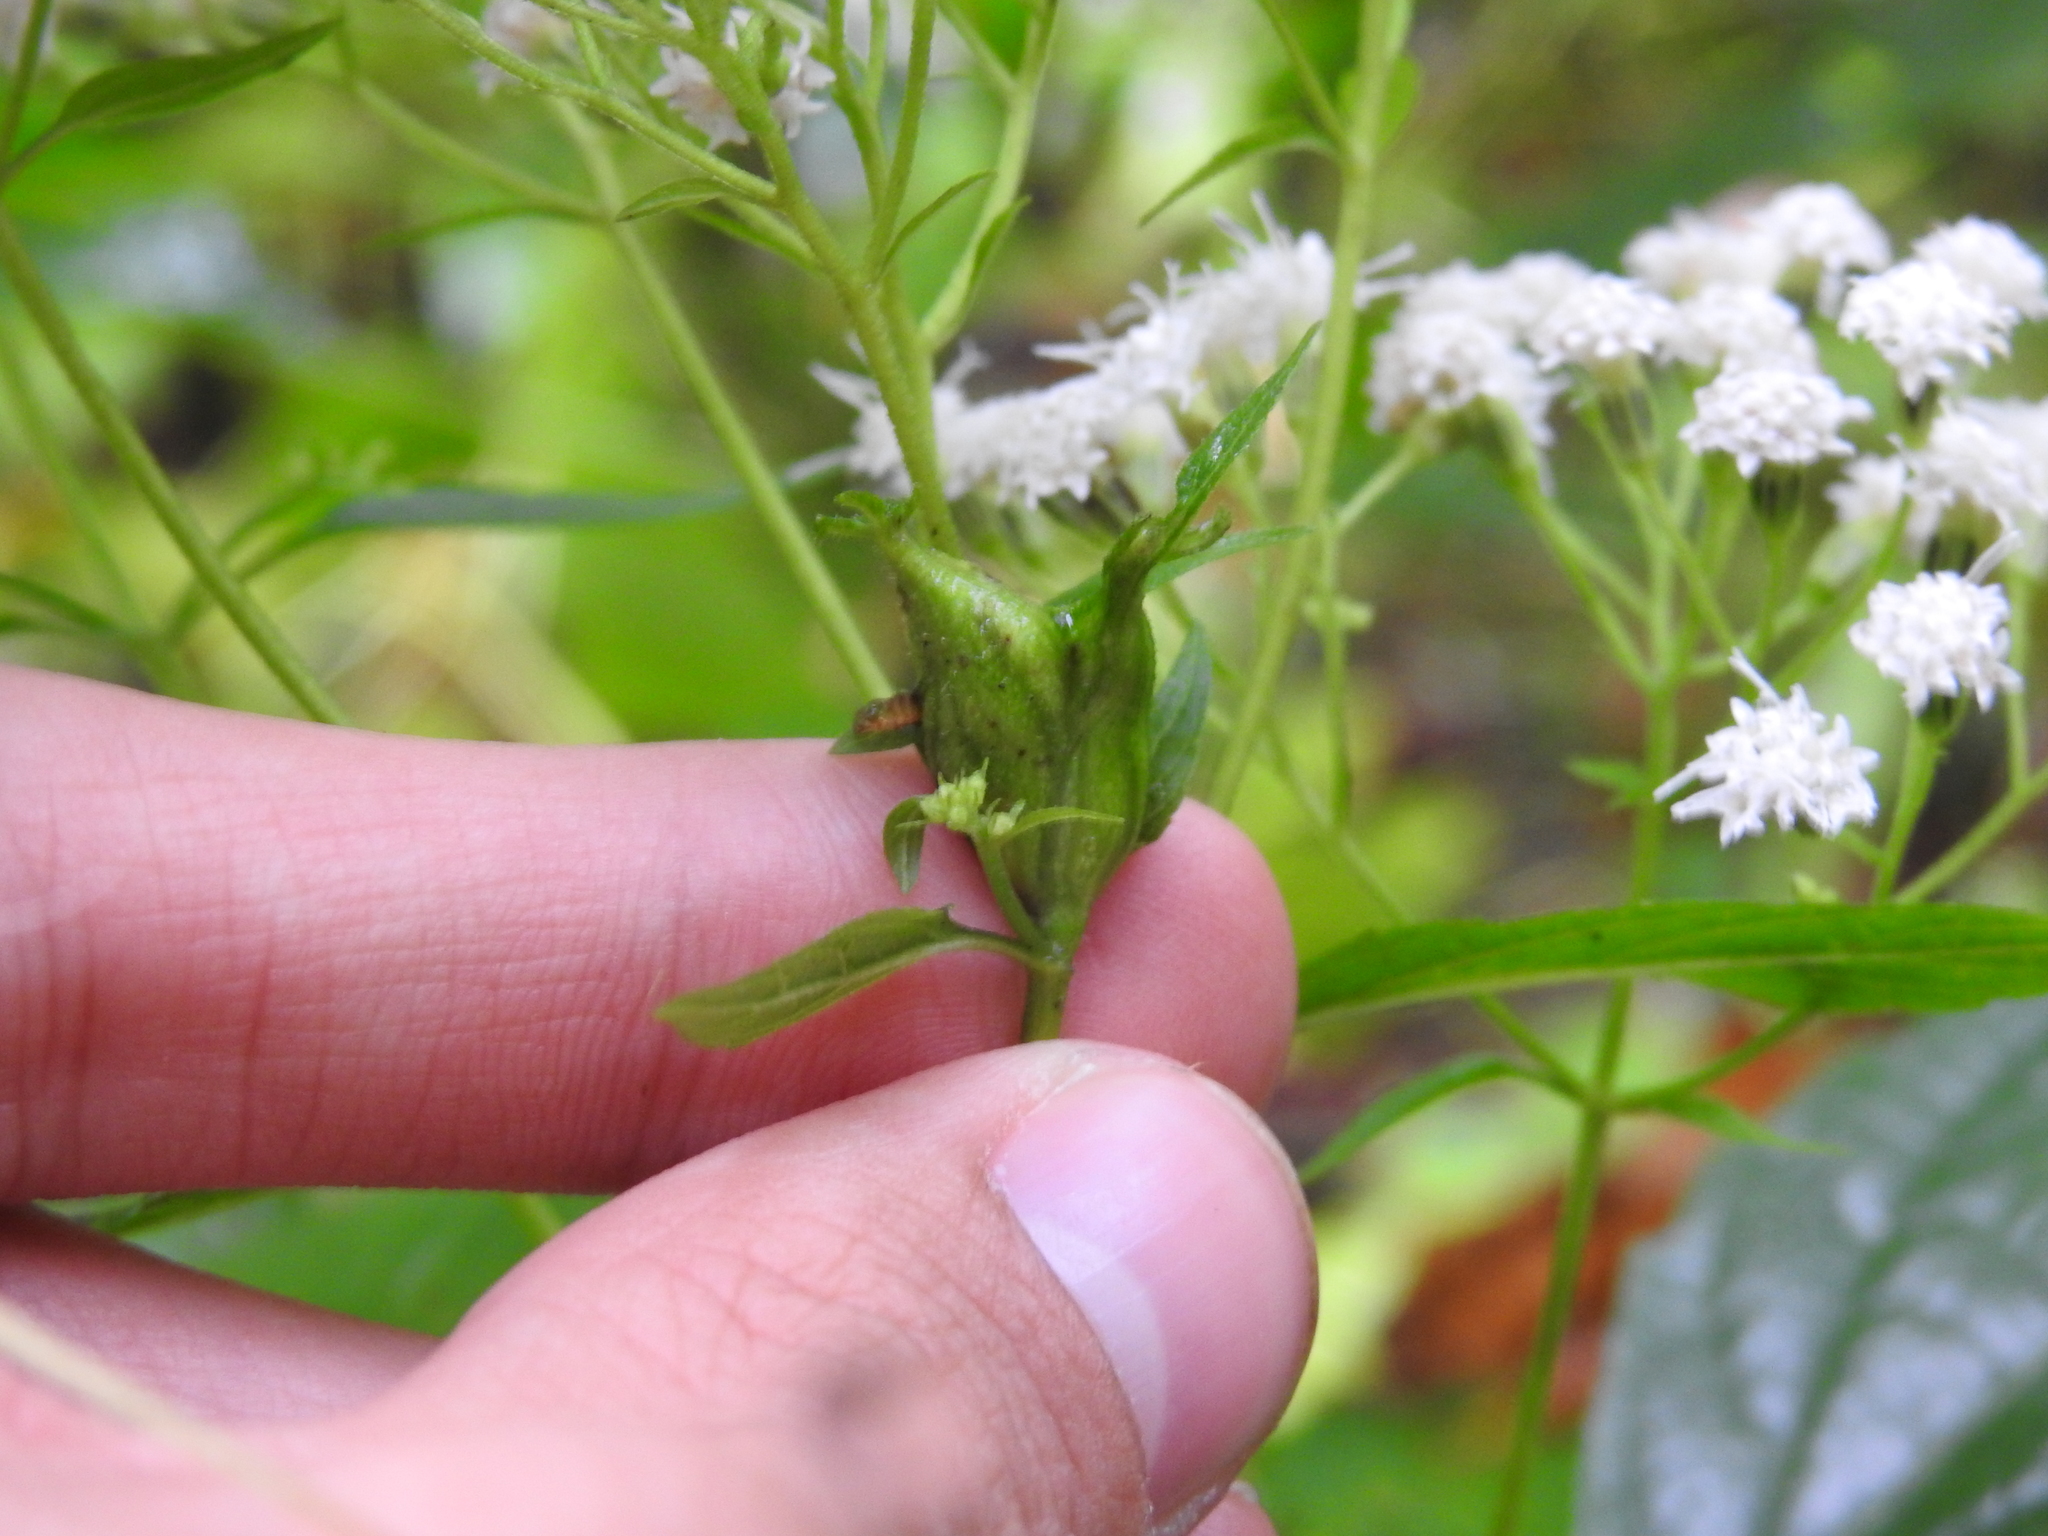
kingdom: Animalia
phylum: Arthropoda
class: Insecta
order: Diptera
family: Cecidomyiidae
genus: Asphondylia
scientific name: Asphondylia eupatorii
